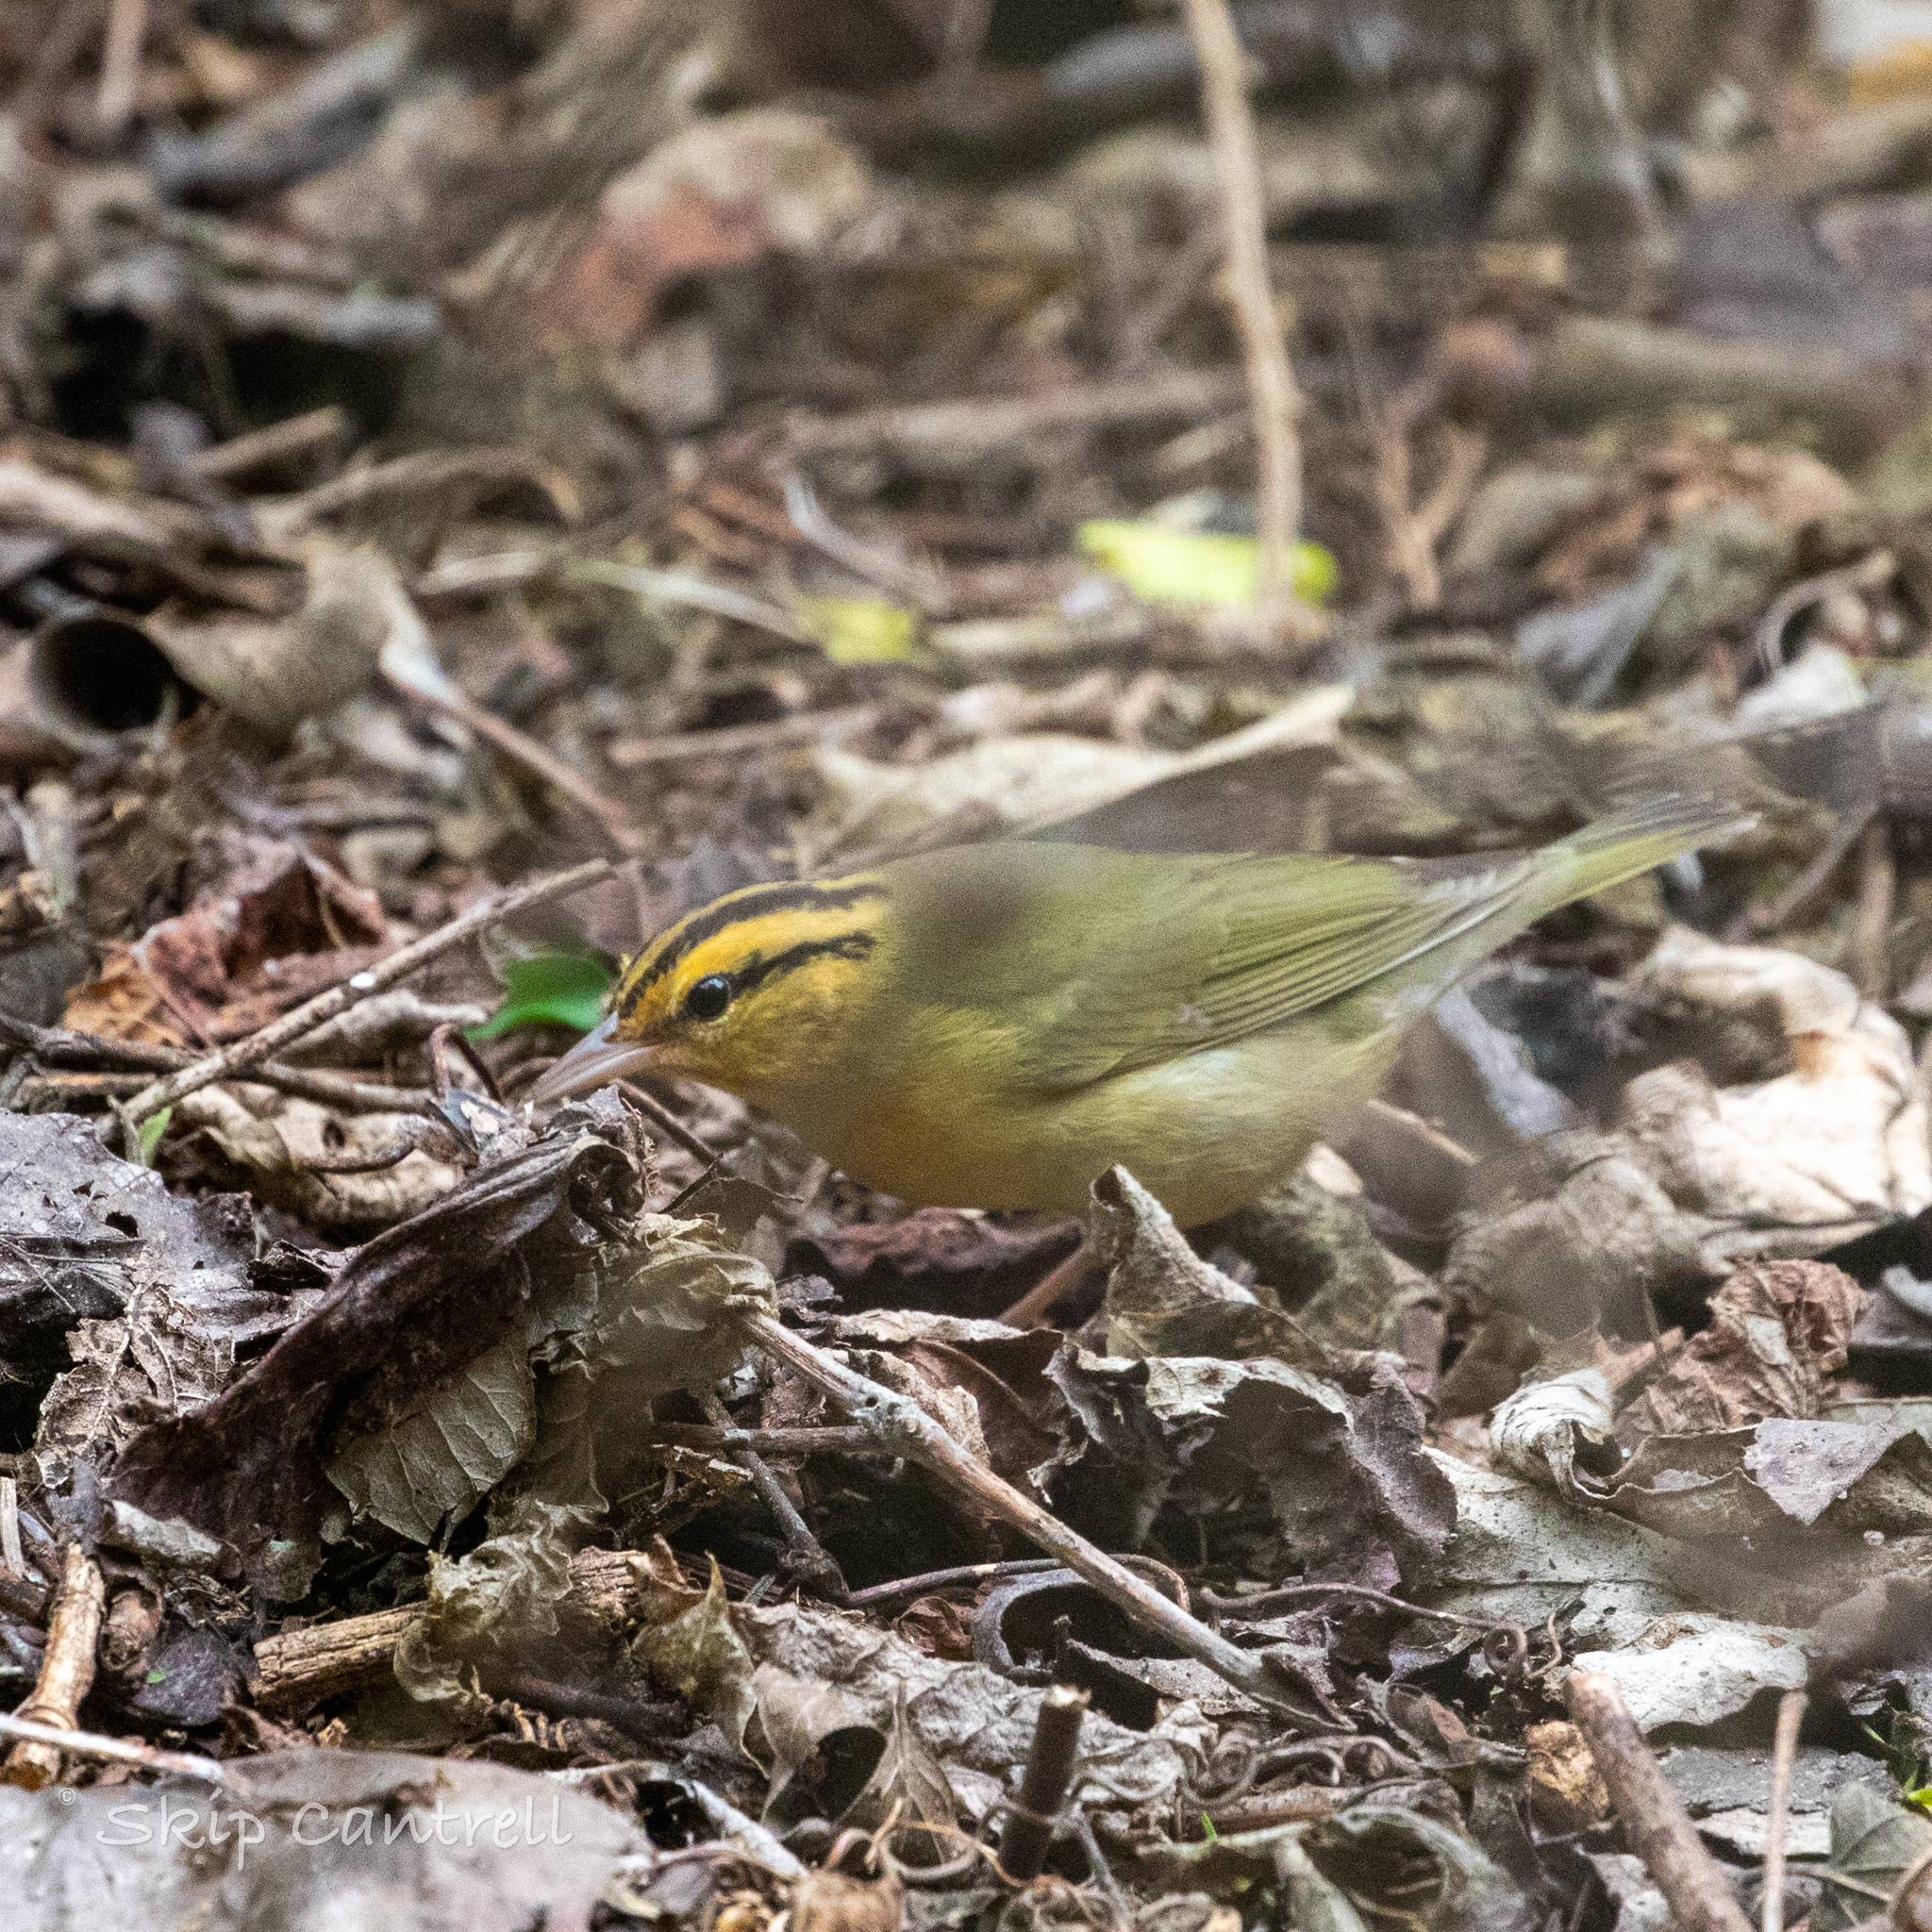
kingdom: Animalia
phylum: Chordata
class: Aves
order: Passeriformes
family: Parulidae
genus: Helmitheros
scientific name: Helmitheros vermivorum
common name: Worm-eating warbler
